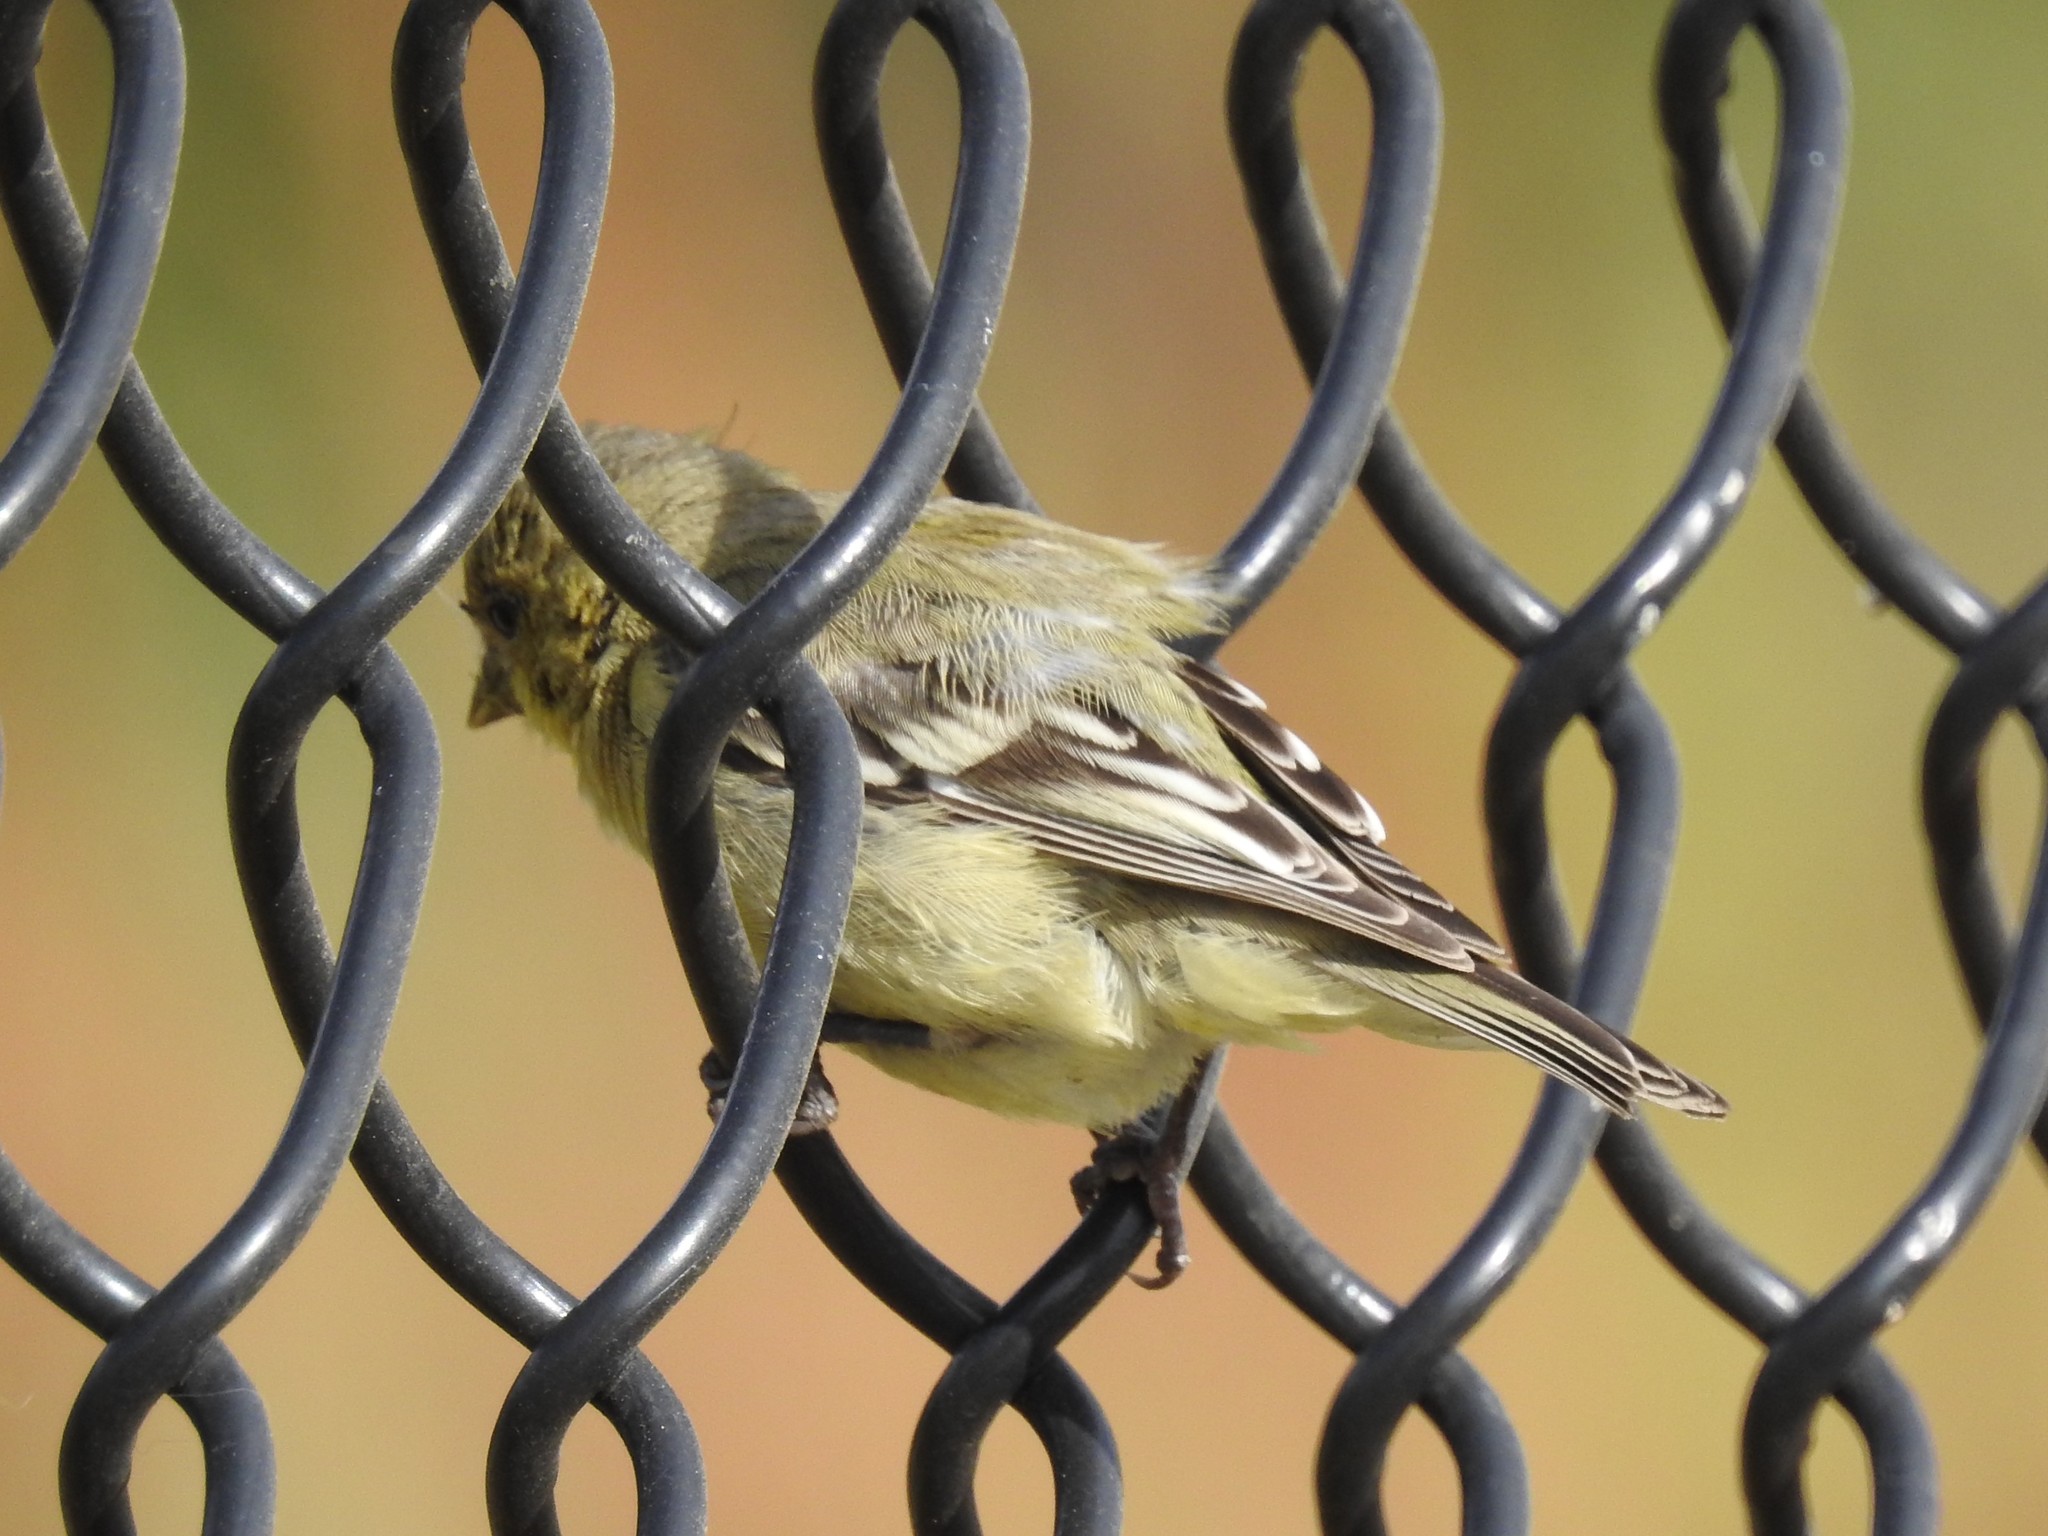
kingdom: Animalia
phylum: Chordata
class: Aves
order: Passeriformes
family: Fringillidae
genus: Spinus
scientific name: Spinus psaltria
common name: Lesser goldfinch
